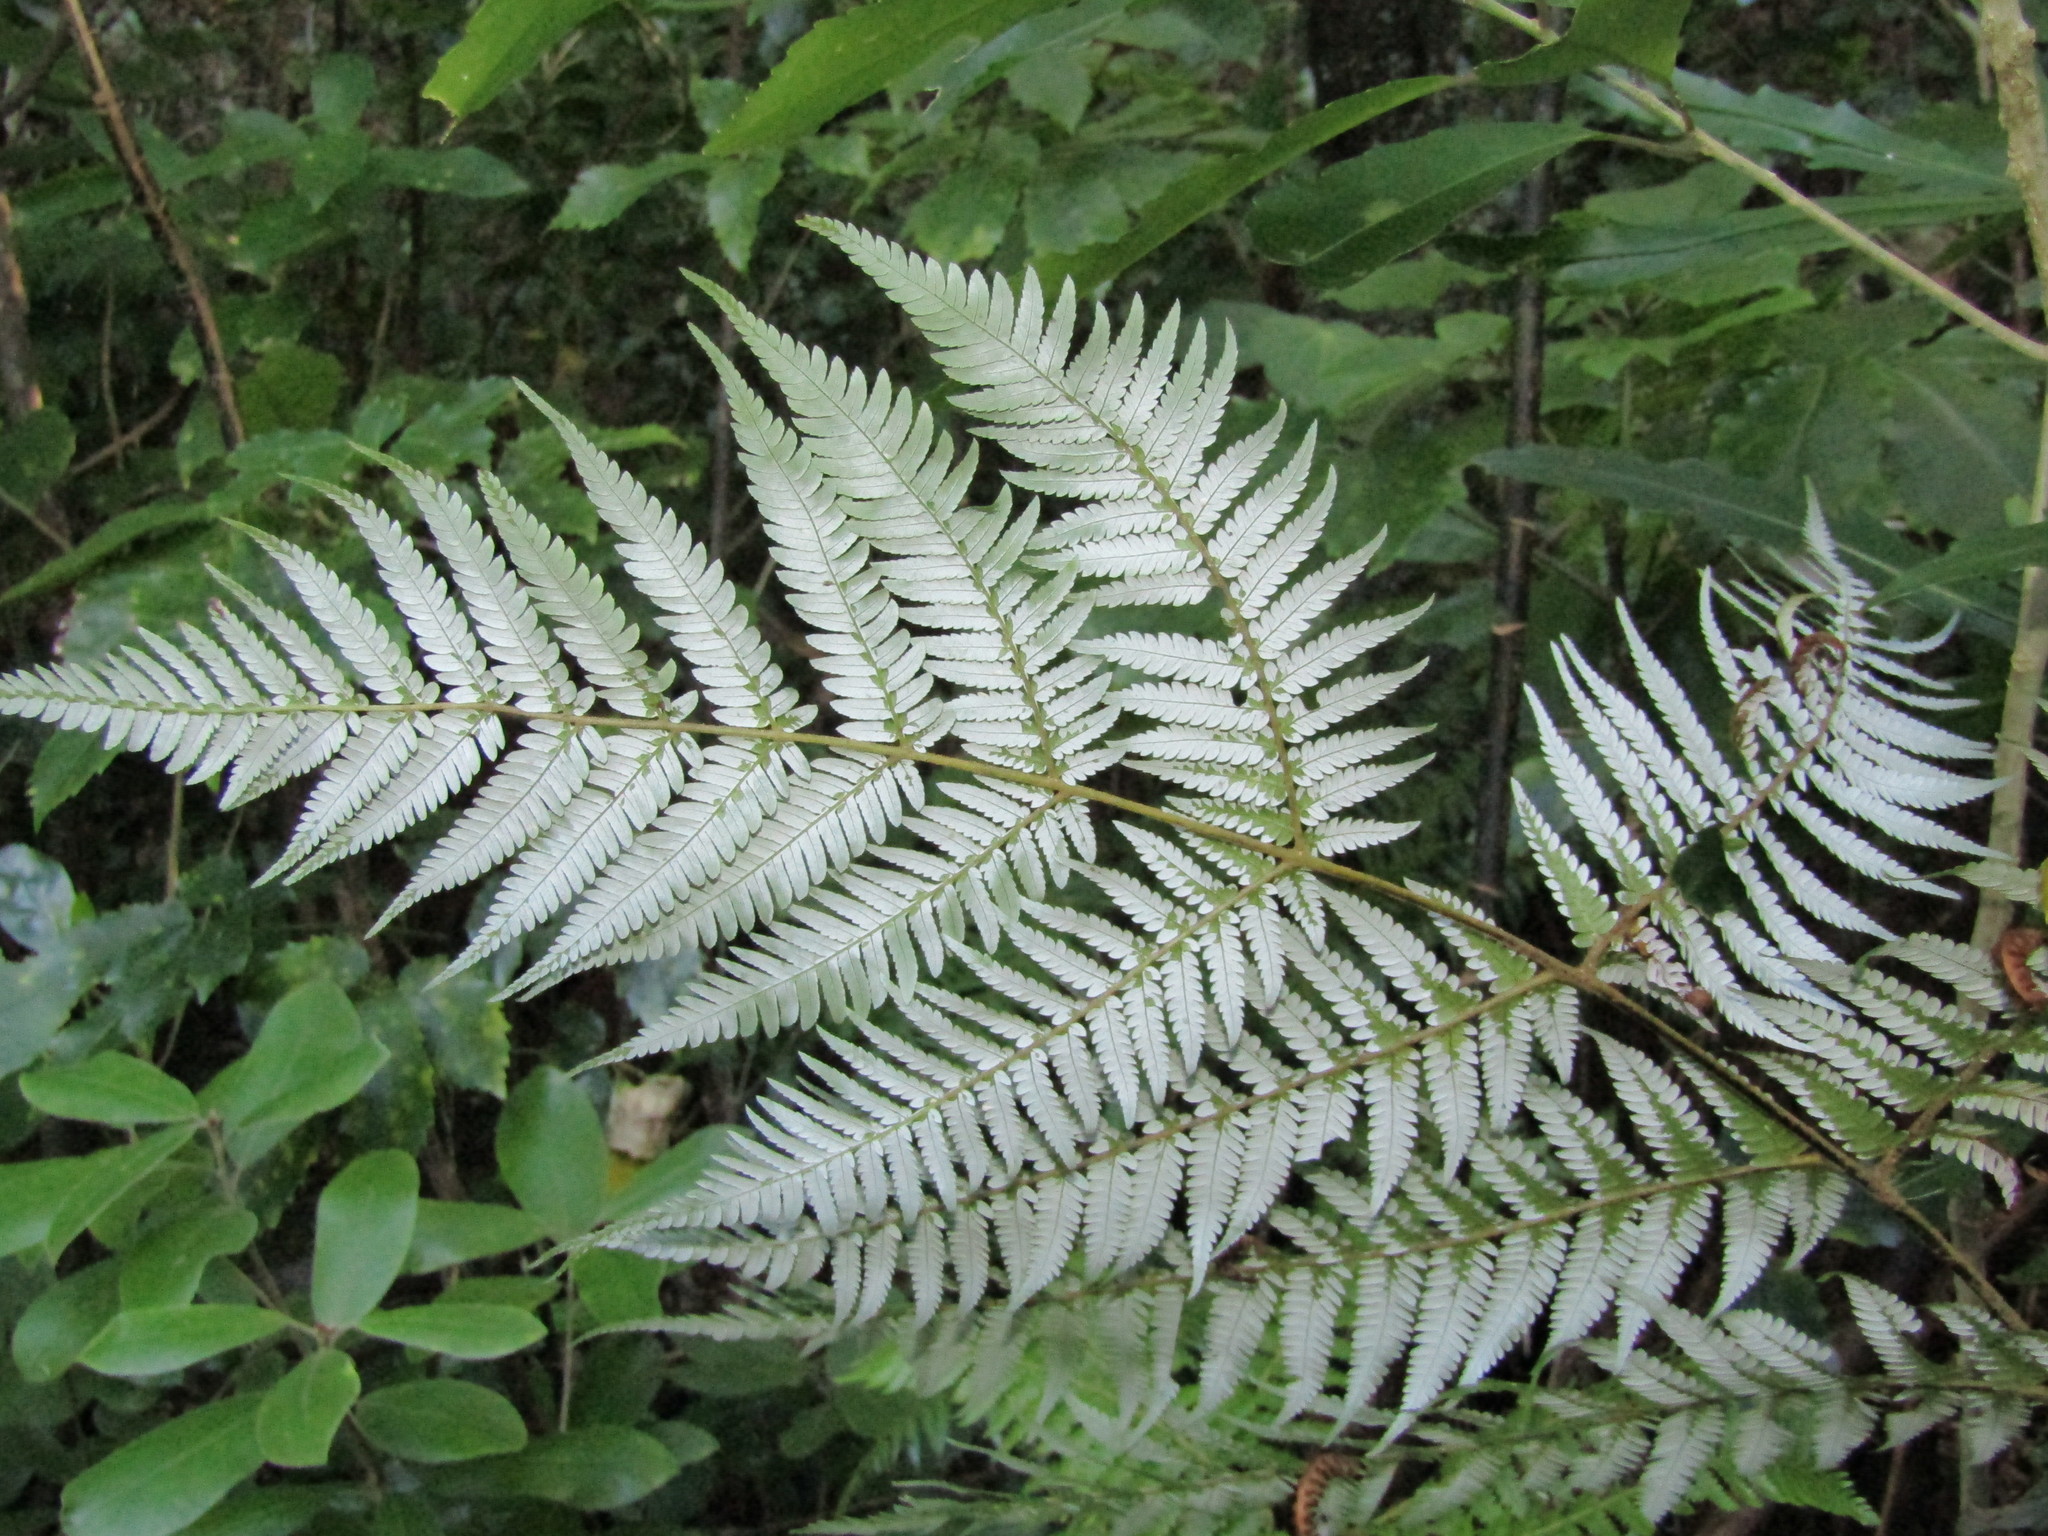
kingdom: Plantae
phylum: Tracheophyta
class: Polypodiopsida
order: Cyatheales
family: Cyatheaceae
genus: Alsophila
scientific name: Alsophila dealbata
